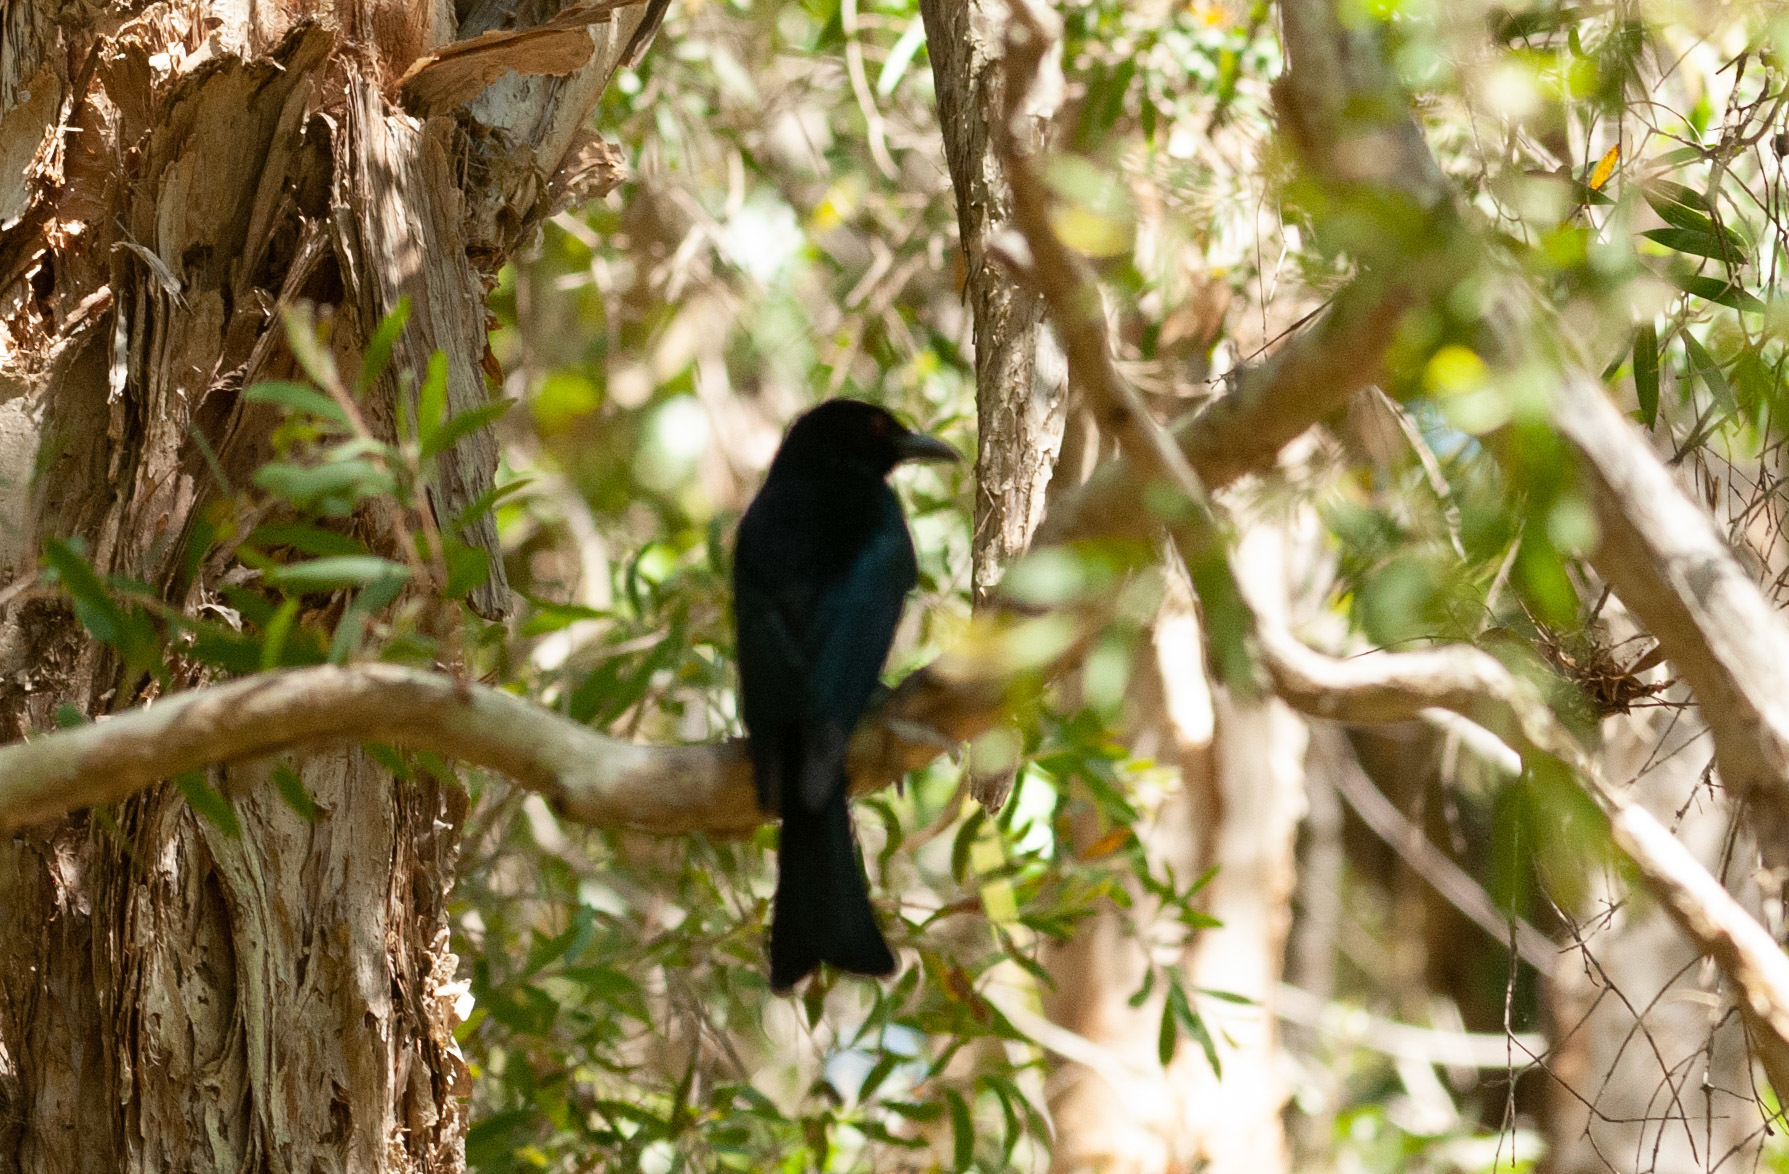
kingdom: Animalia
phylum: Chordata
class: Aves
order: Passeriformes
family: Dicruridae
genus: Dicrurus
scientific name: Dicrurus bracteatus
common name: Spangled drongo
